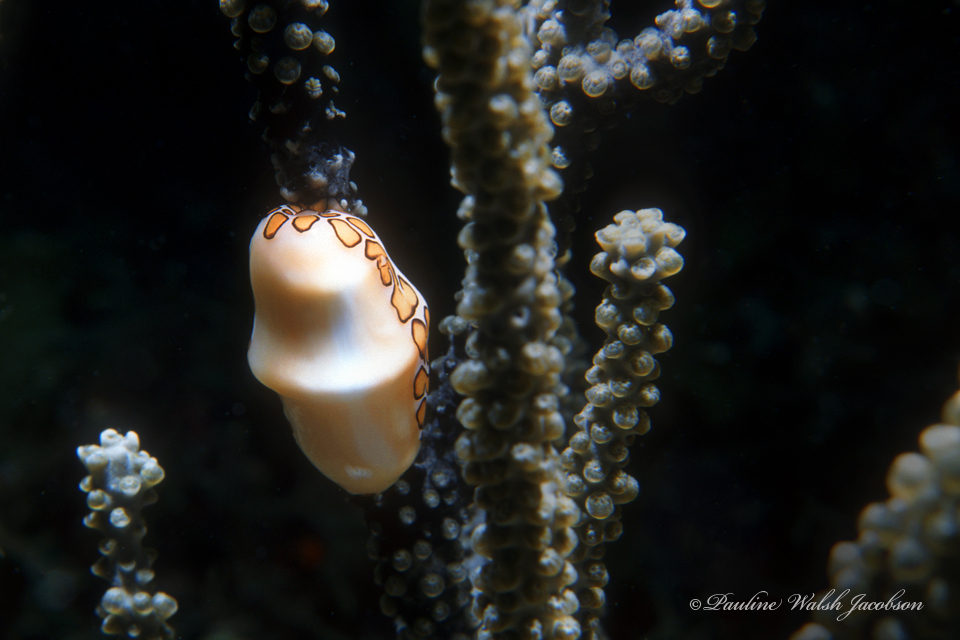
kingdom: Animalia
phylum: Mollusca
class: Gastropoda
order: Littorinimorpha
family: Ovulidae
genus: Cyphoma
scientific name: Cyphoma gibbosum
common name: Flamingo tongue
